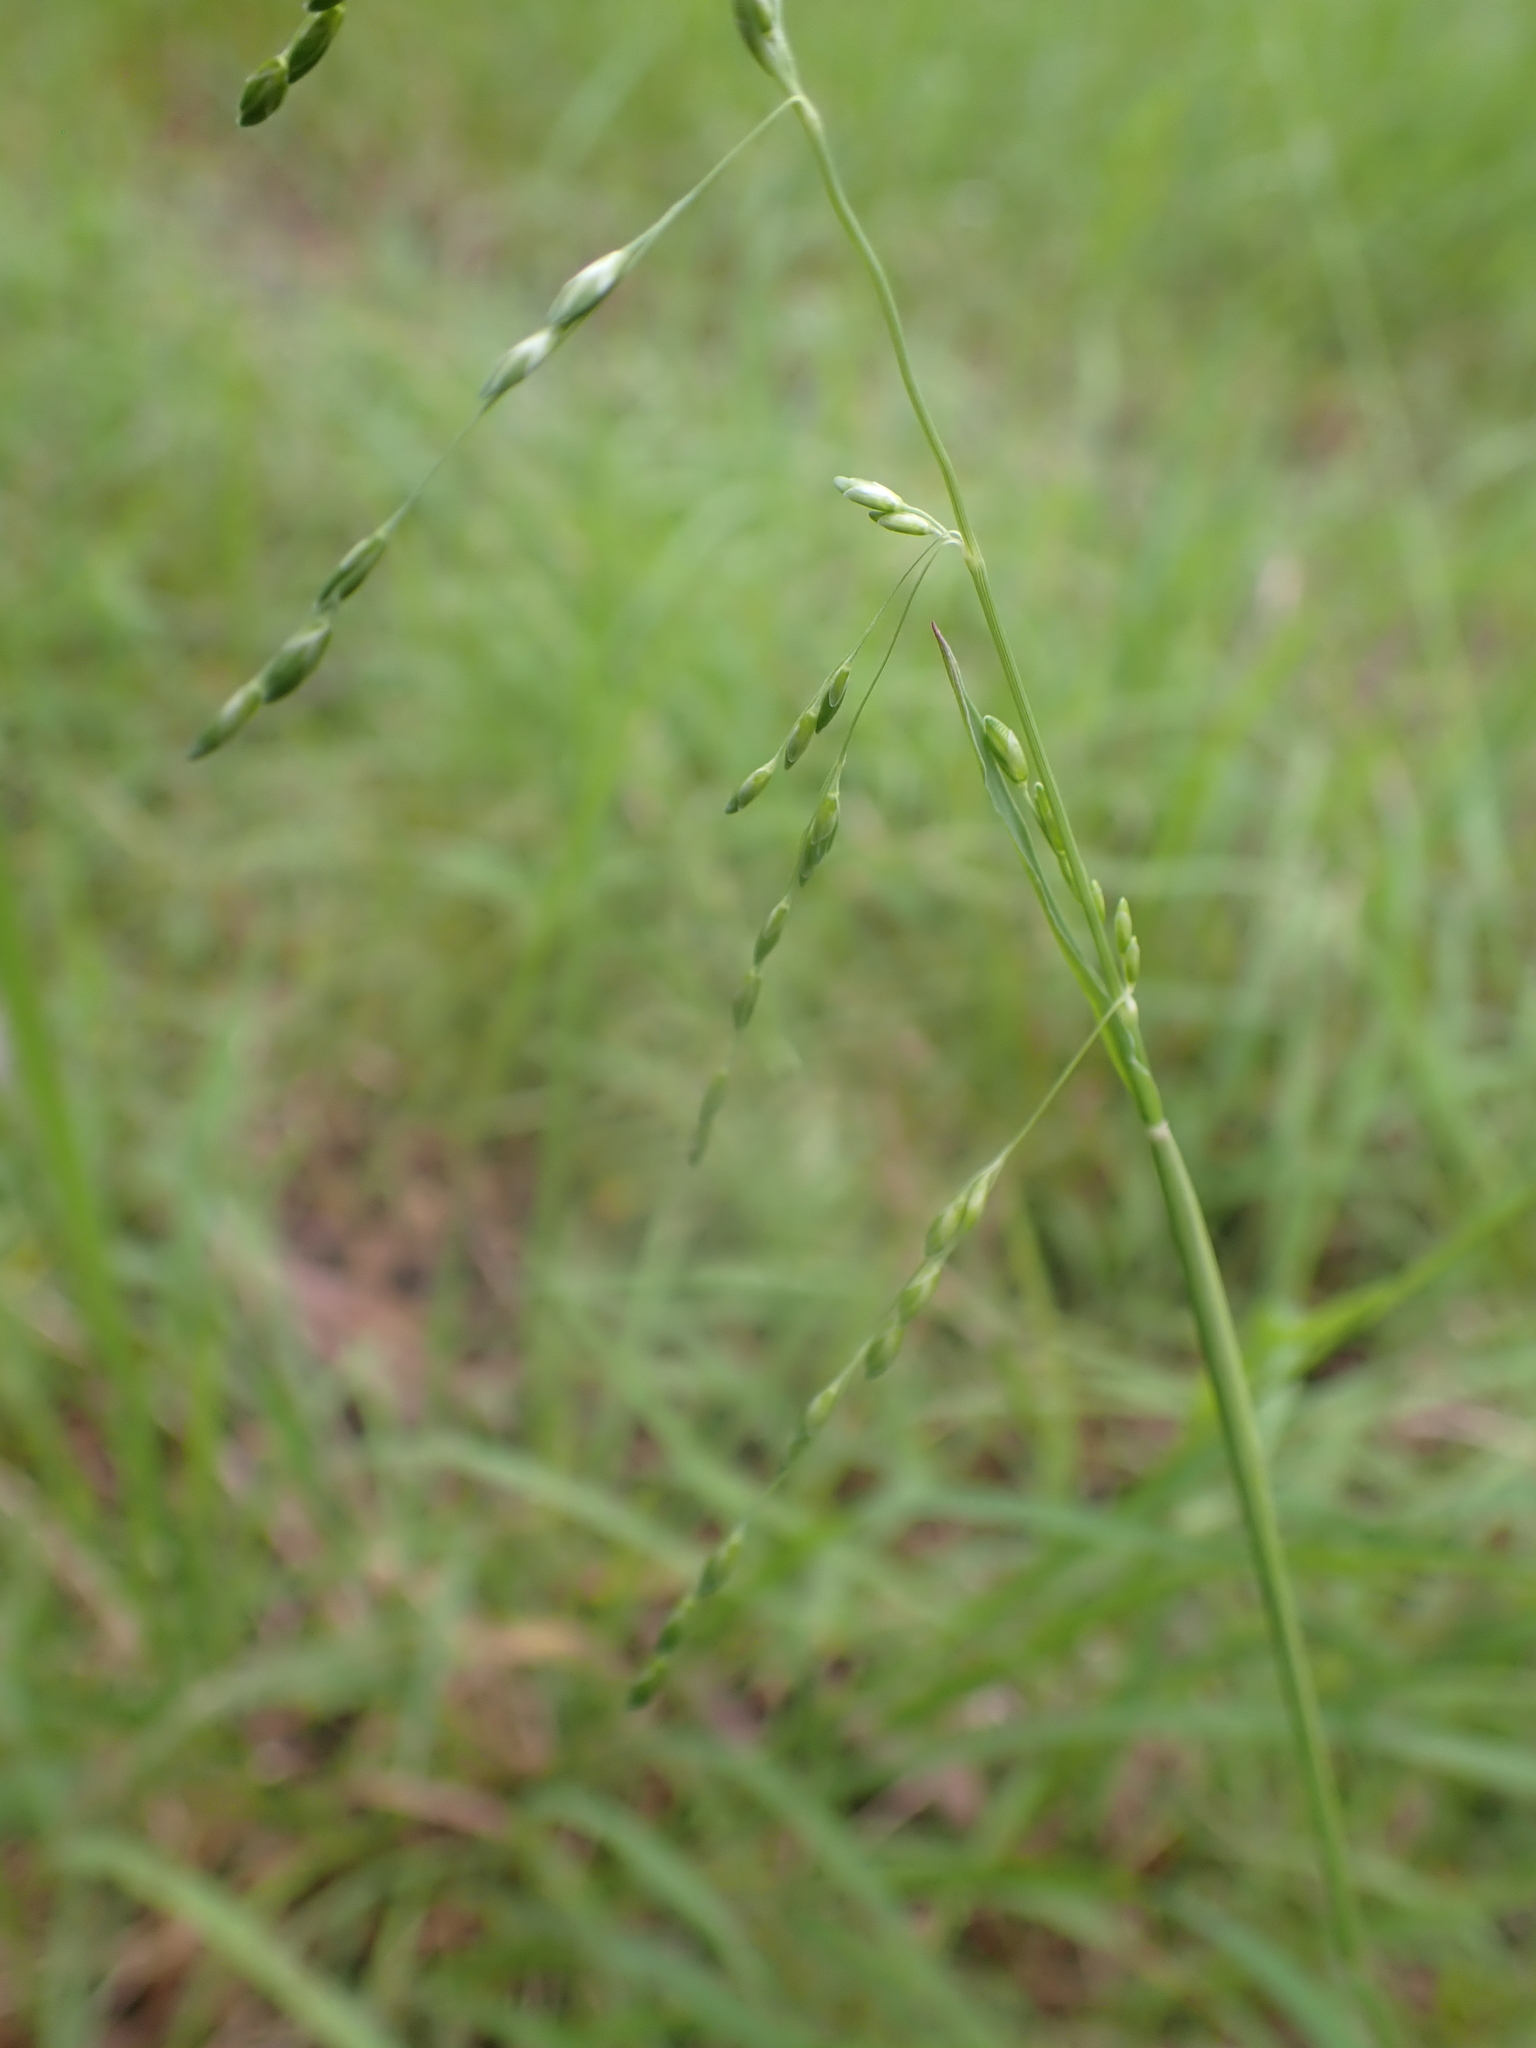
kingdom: Plantae
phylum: Tracheophyta
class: Liliopsida
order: Poales
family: Poaceae
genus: Ehrharta
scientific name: Ehrharta erecta
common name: Panic veldtgrass
